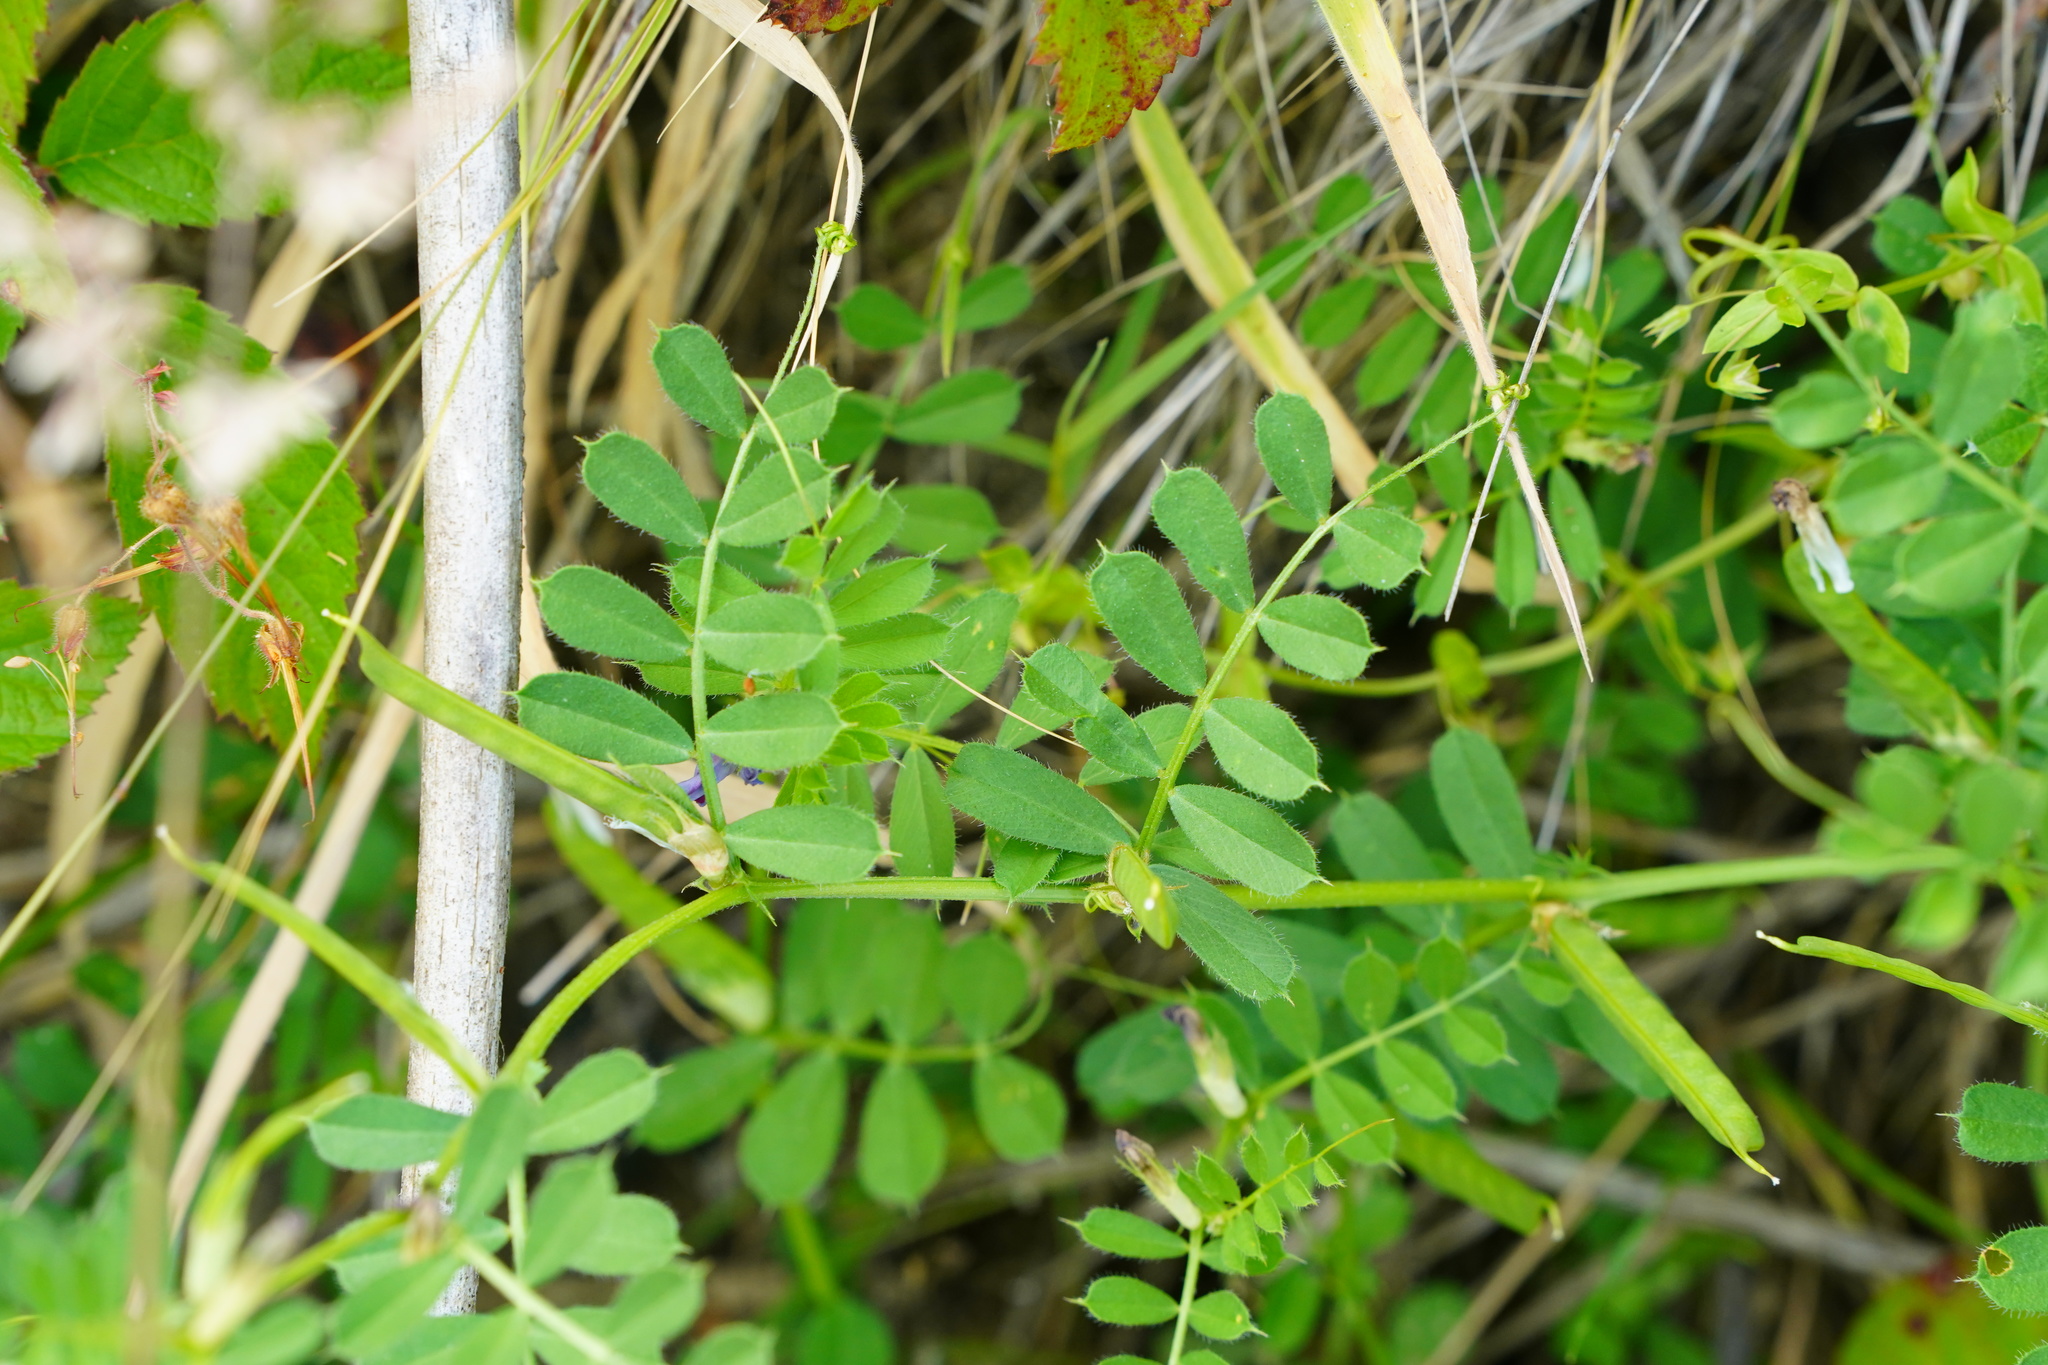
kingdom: Plantae
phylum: Tracheophyta
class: Magnoliopsida
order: Fabales
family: Fabaceae
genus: Vicia
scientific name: Vicia sativa
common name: Garden vetch
